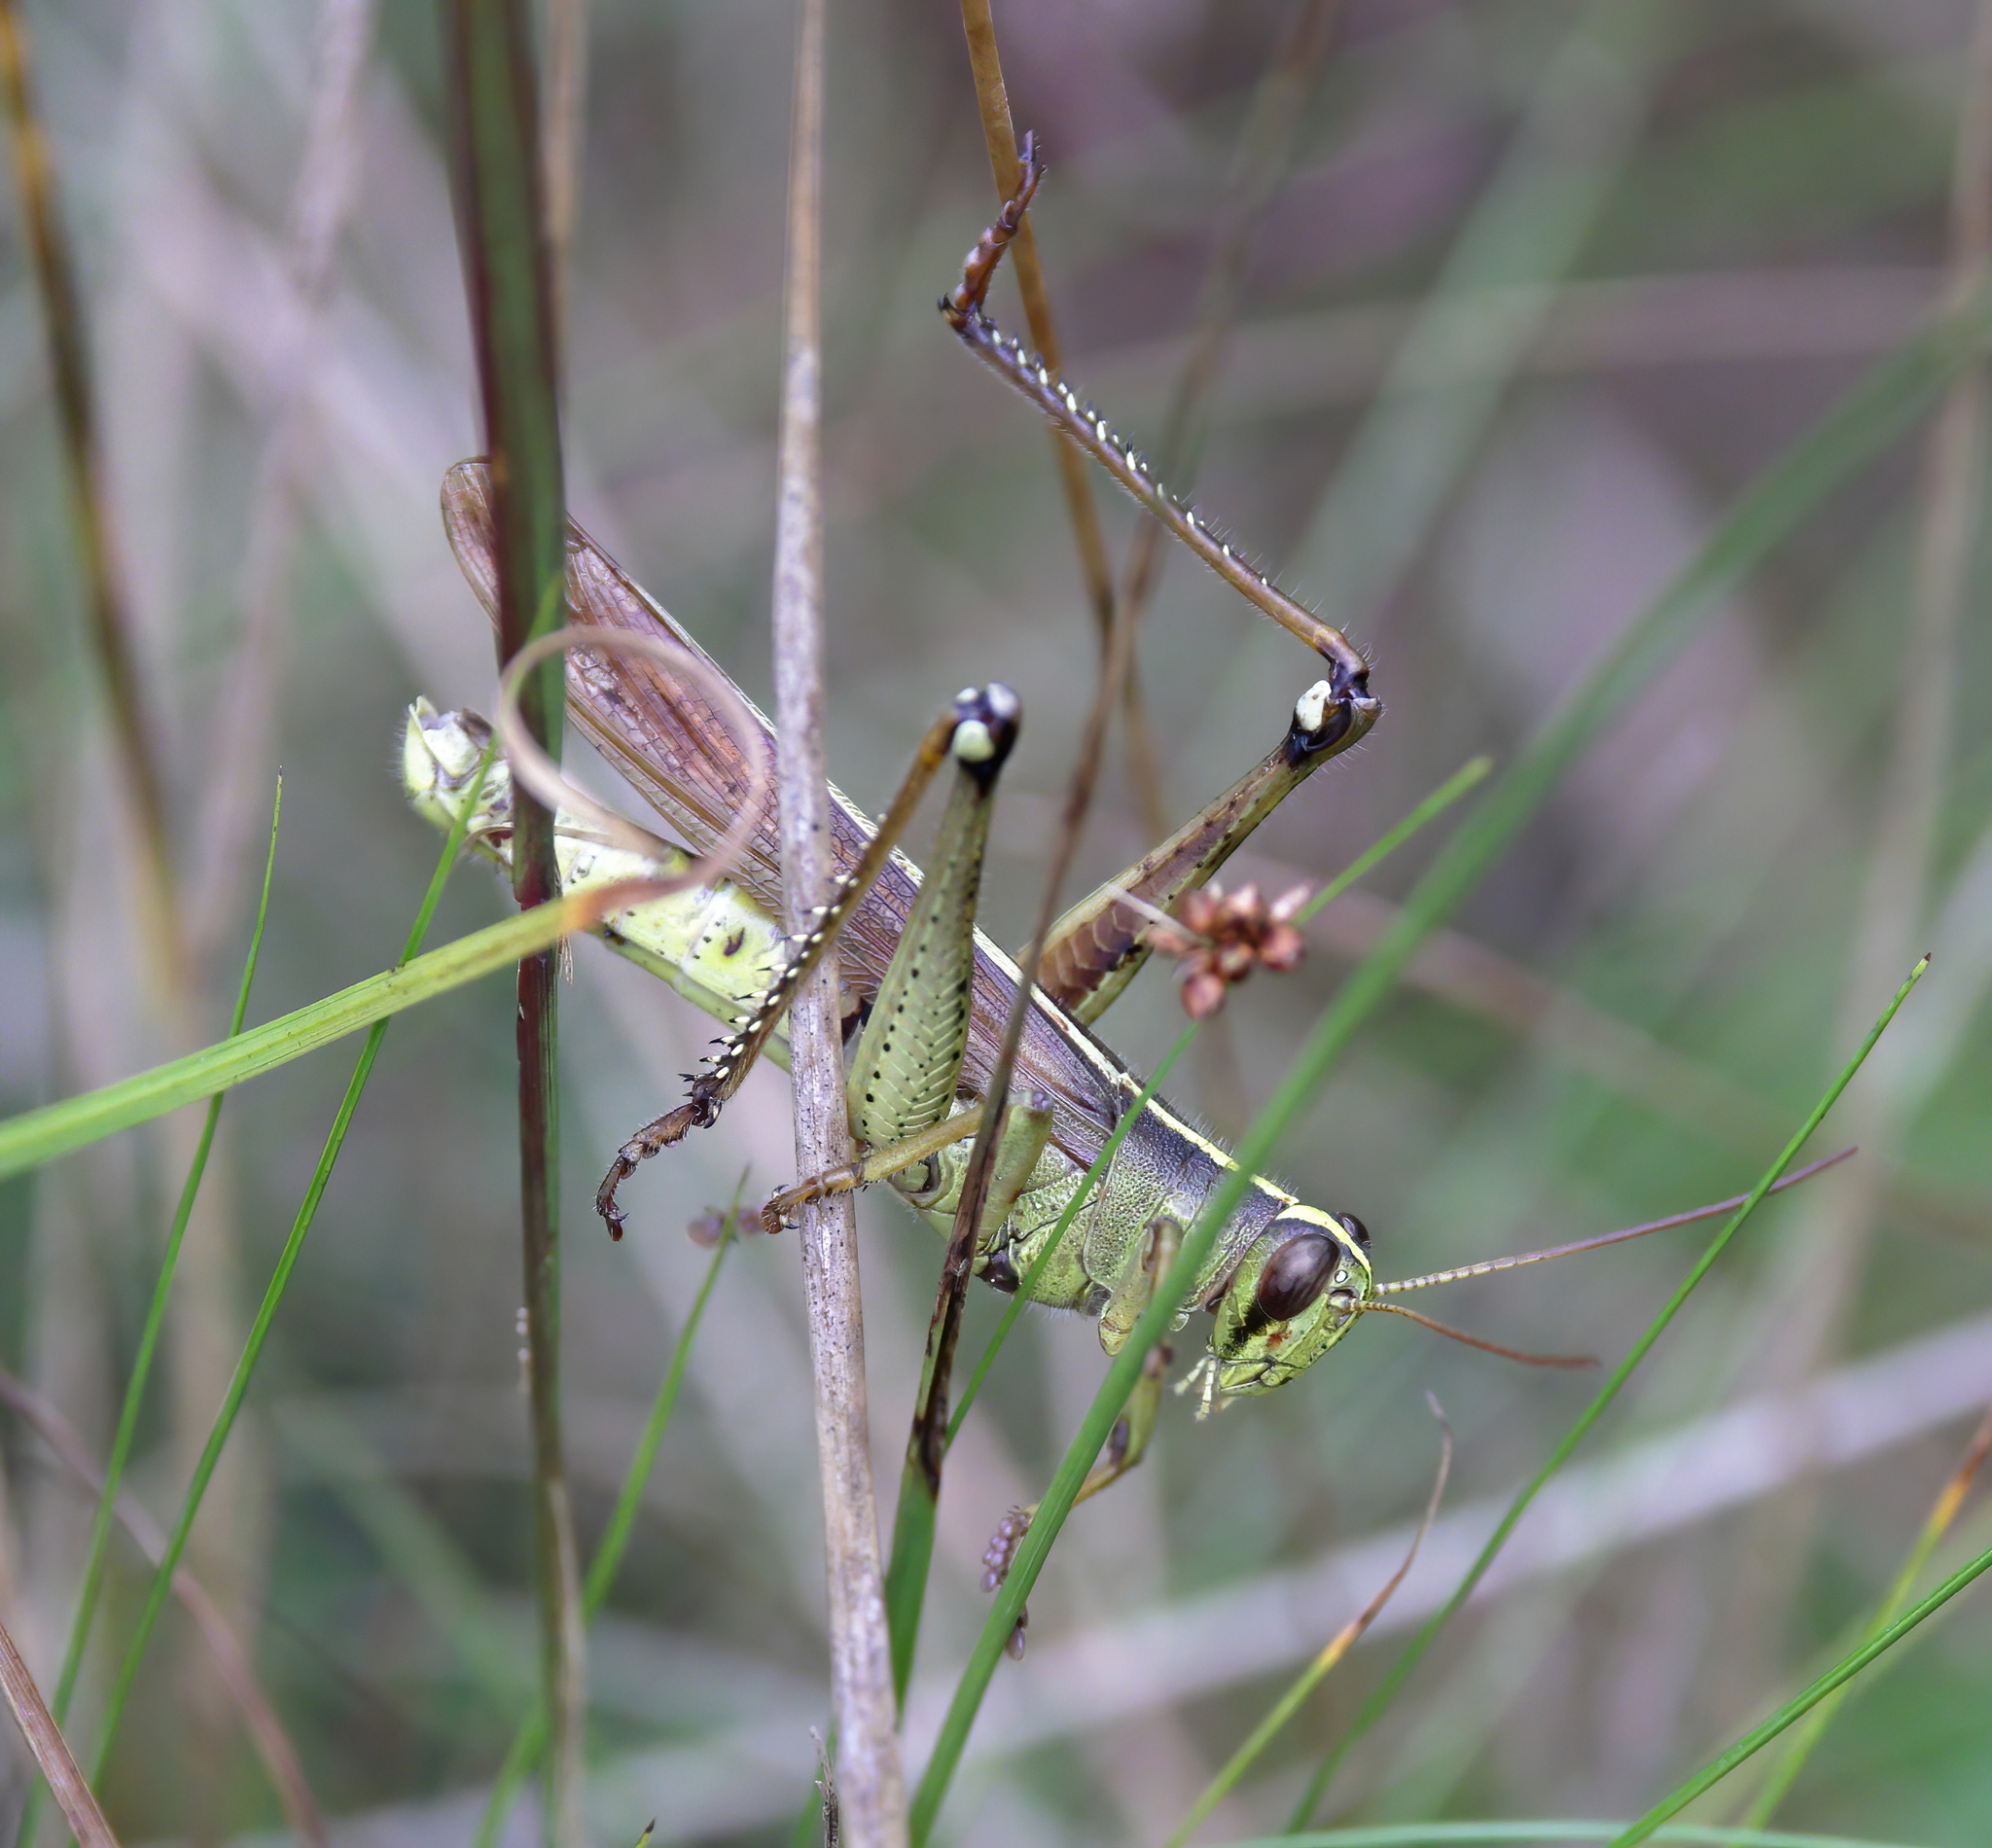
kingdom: Animalia
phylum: Arthropoda
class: Insecta
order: Orthoptera
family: Acrididae
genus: Schistocerca
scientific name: Schistocerca alutacea
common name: Leather-colored bird locust
